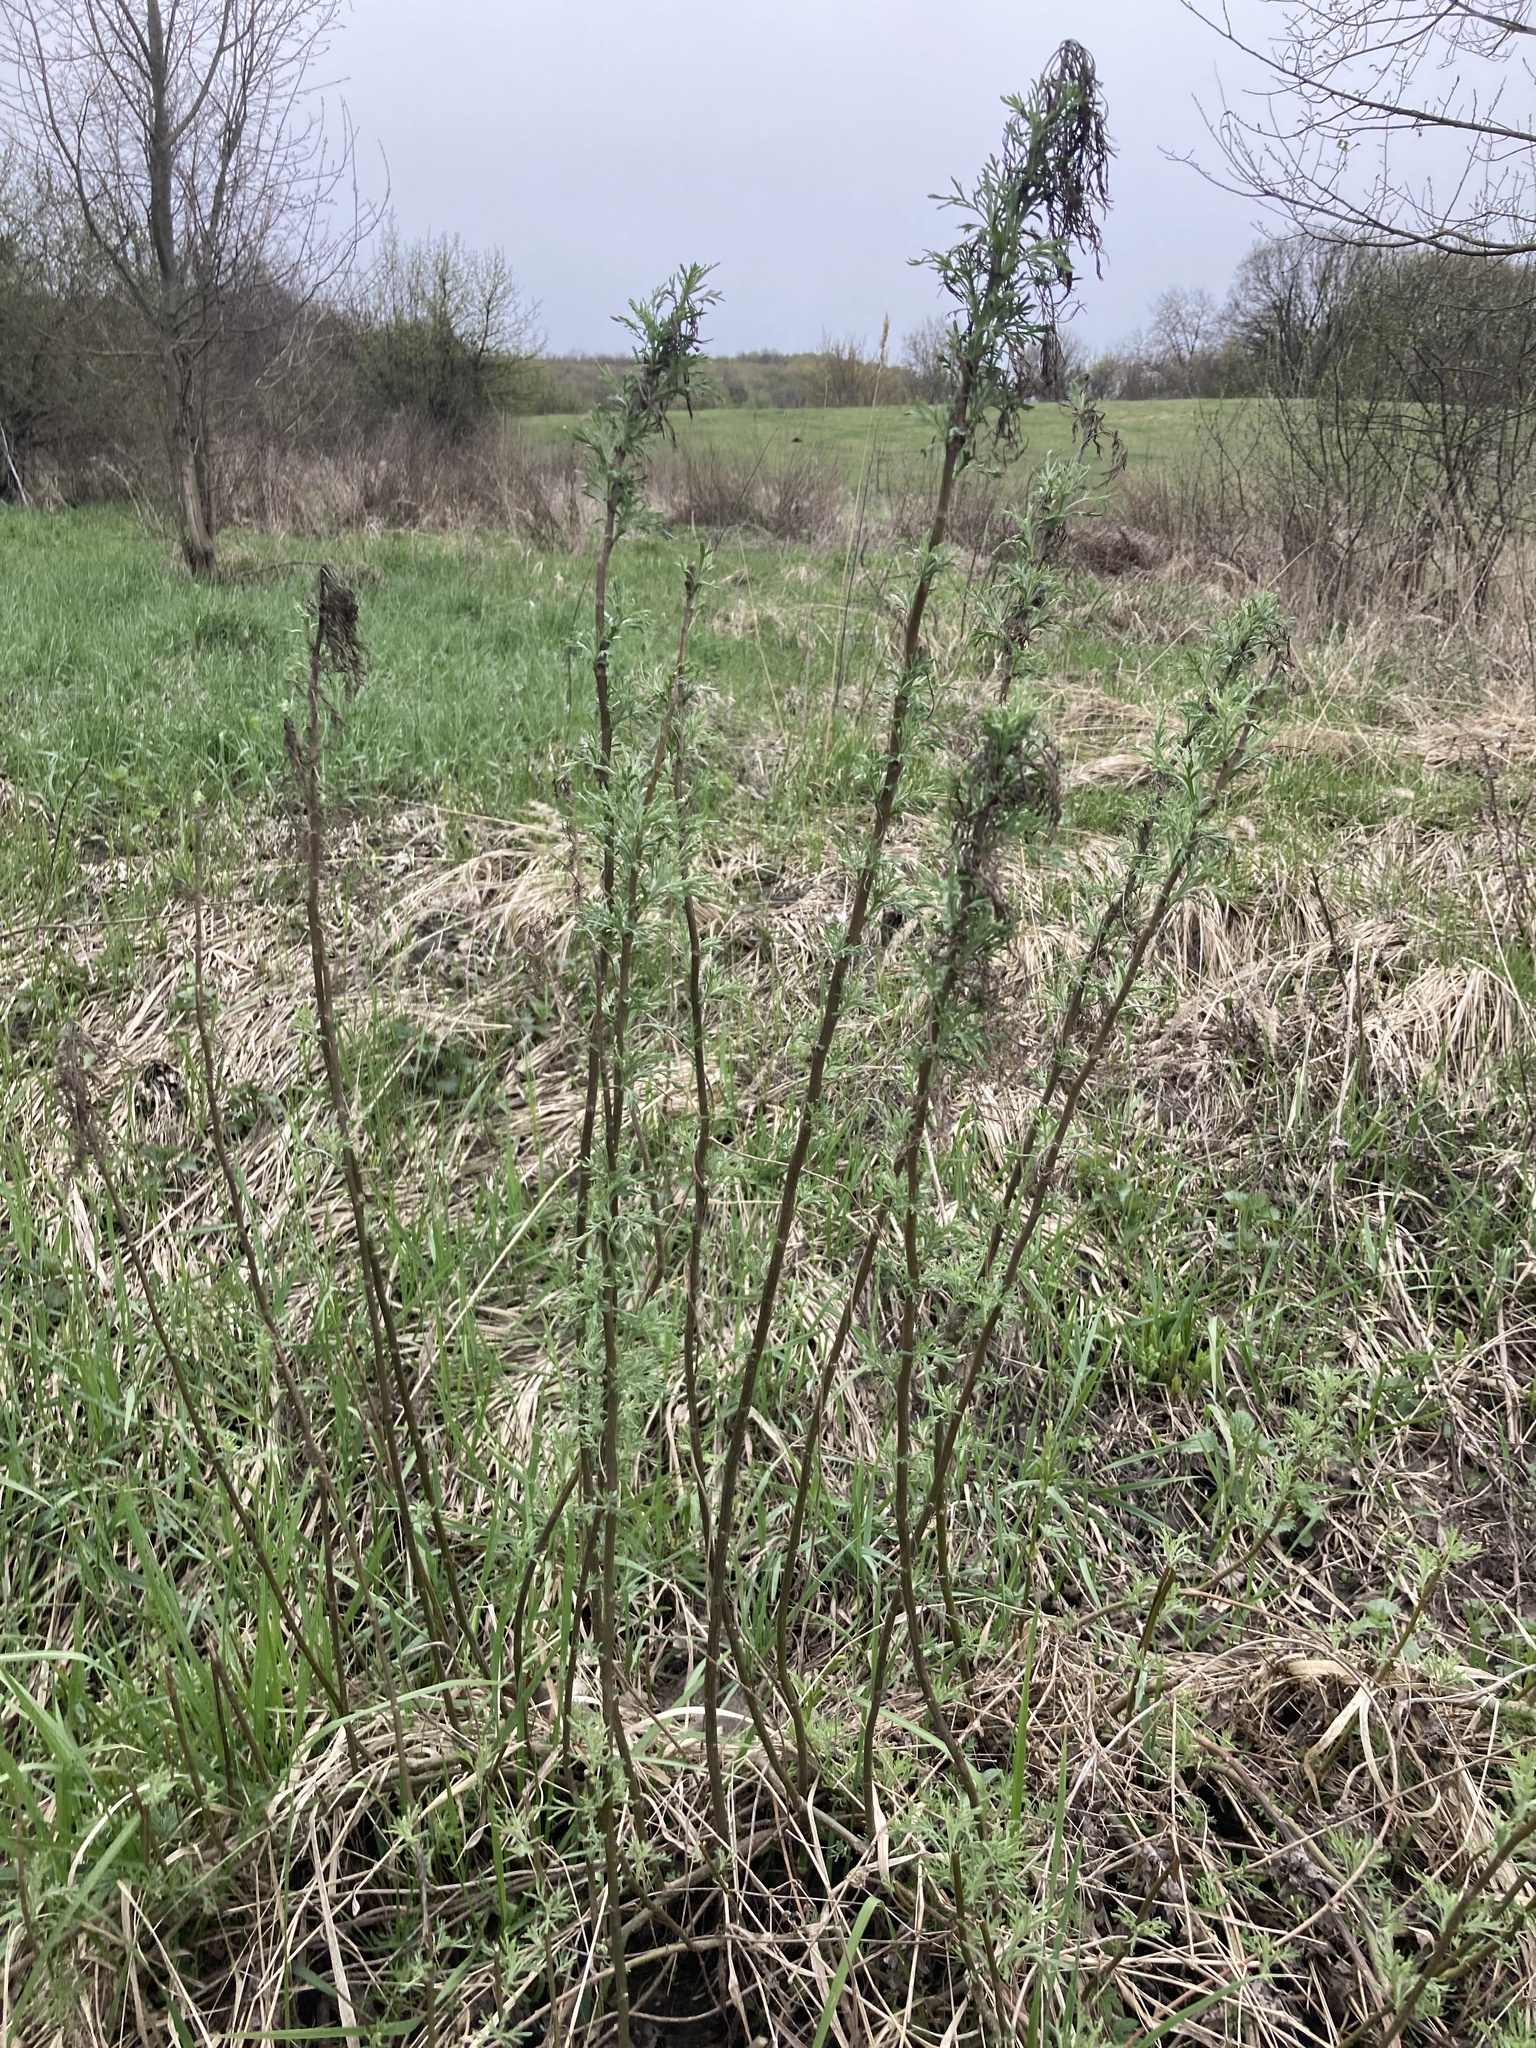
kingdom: Plantae
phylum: Tracheophyta
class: Magnoliopsida
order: Asterales
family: Asteraceae
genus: Artemisia
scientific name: Artemisia abrotanum
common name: Southernwood
